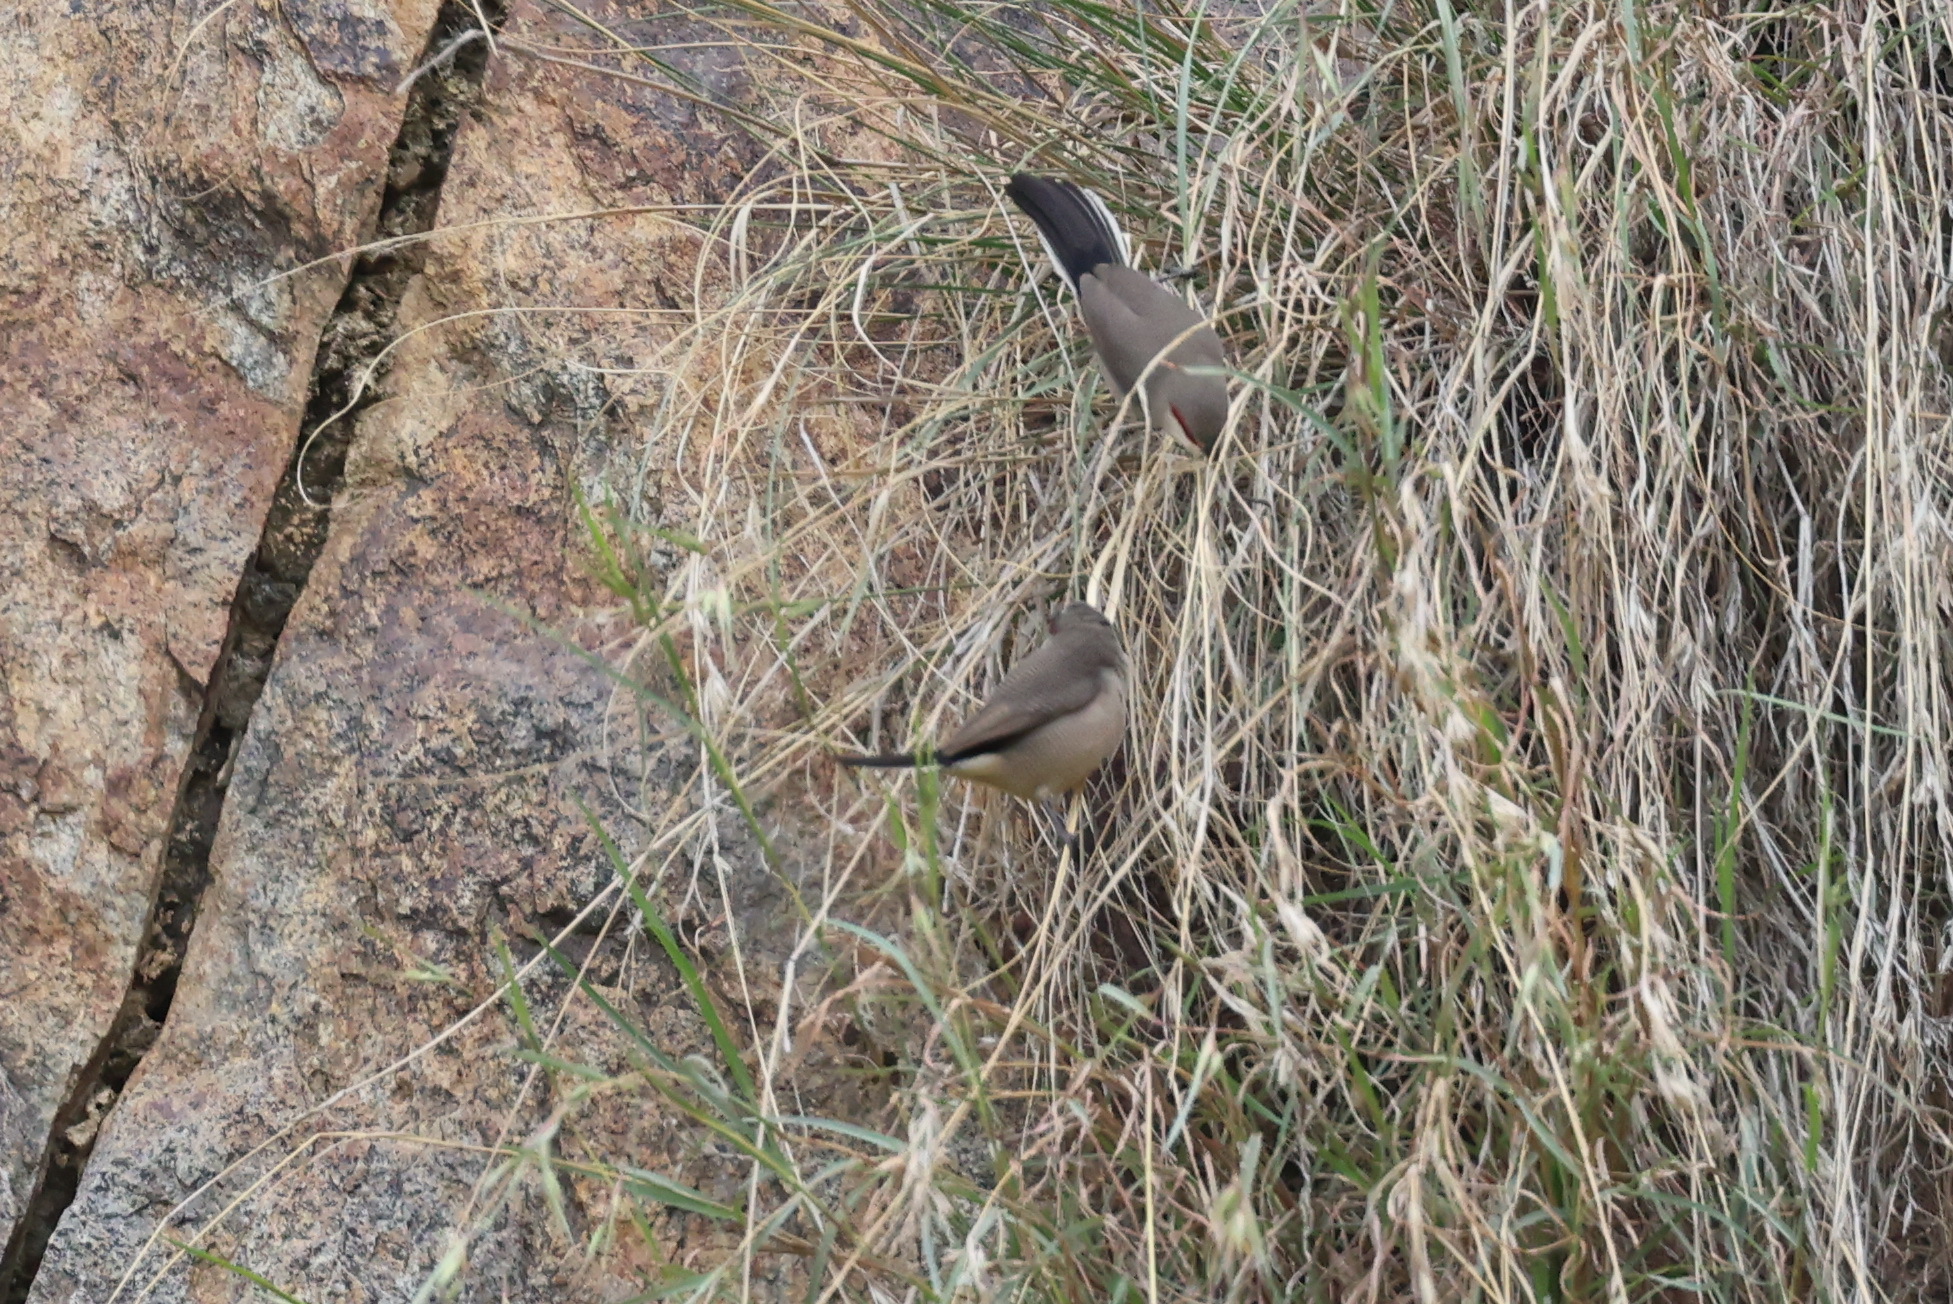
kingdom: Animalia
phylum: Chordata
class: Aves
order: Passeriformes
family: Estrildidae
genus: Estrilda
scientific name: Estrilda rufibarba
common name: Arabian waxbill
